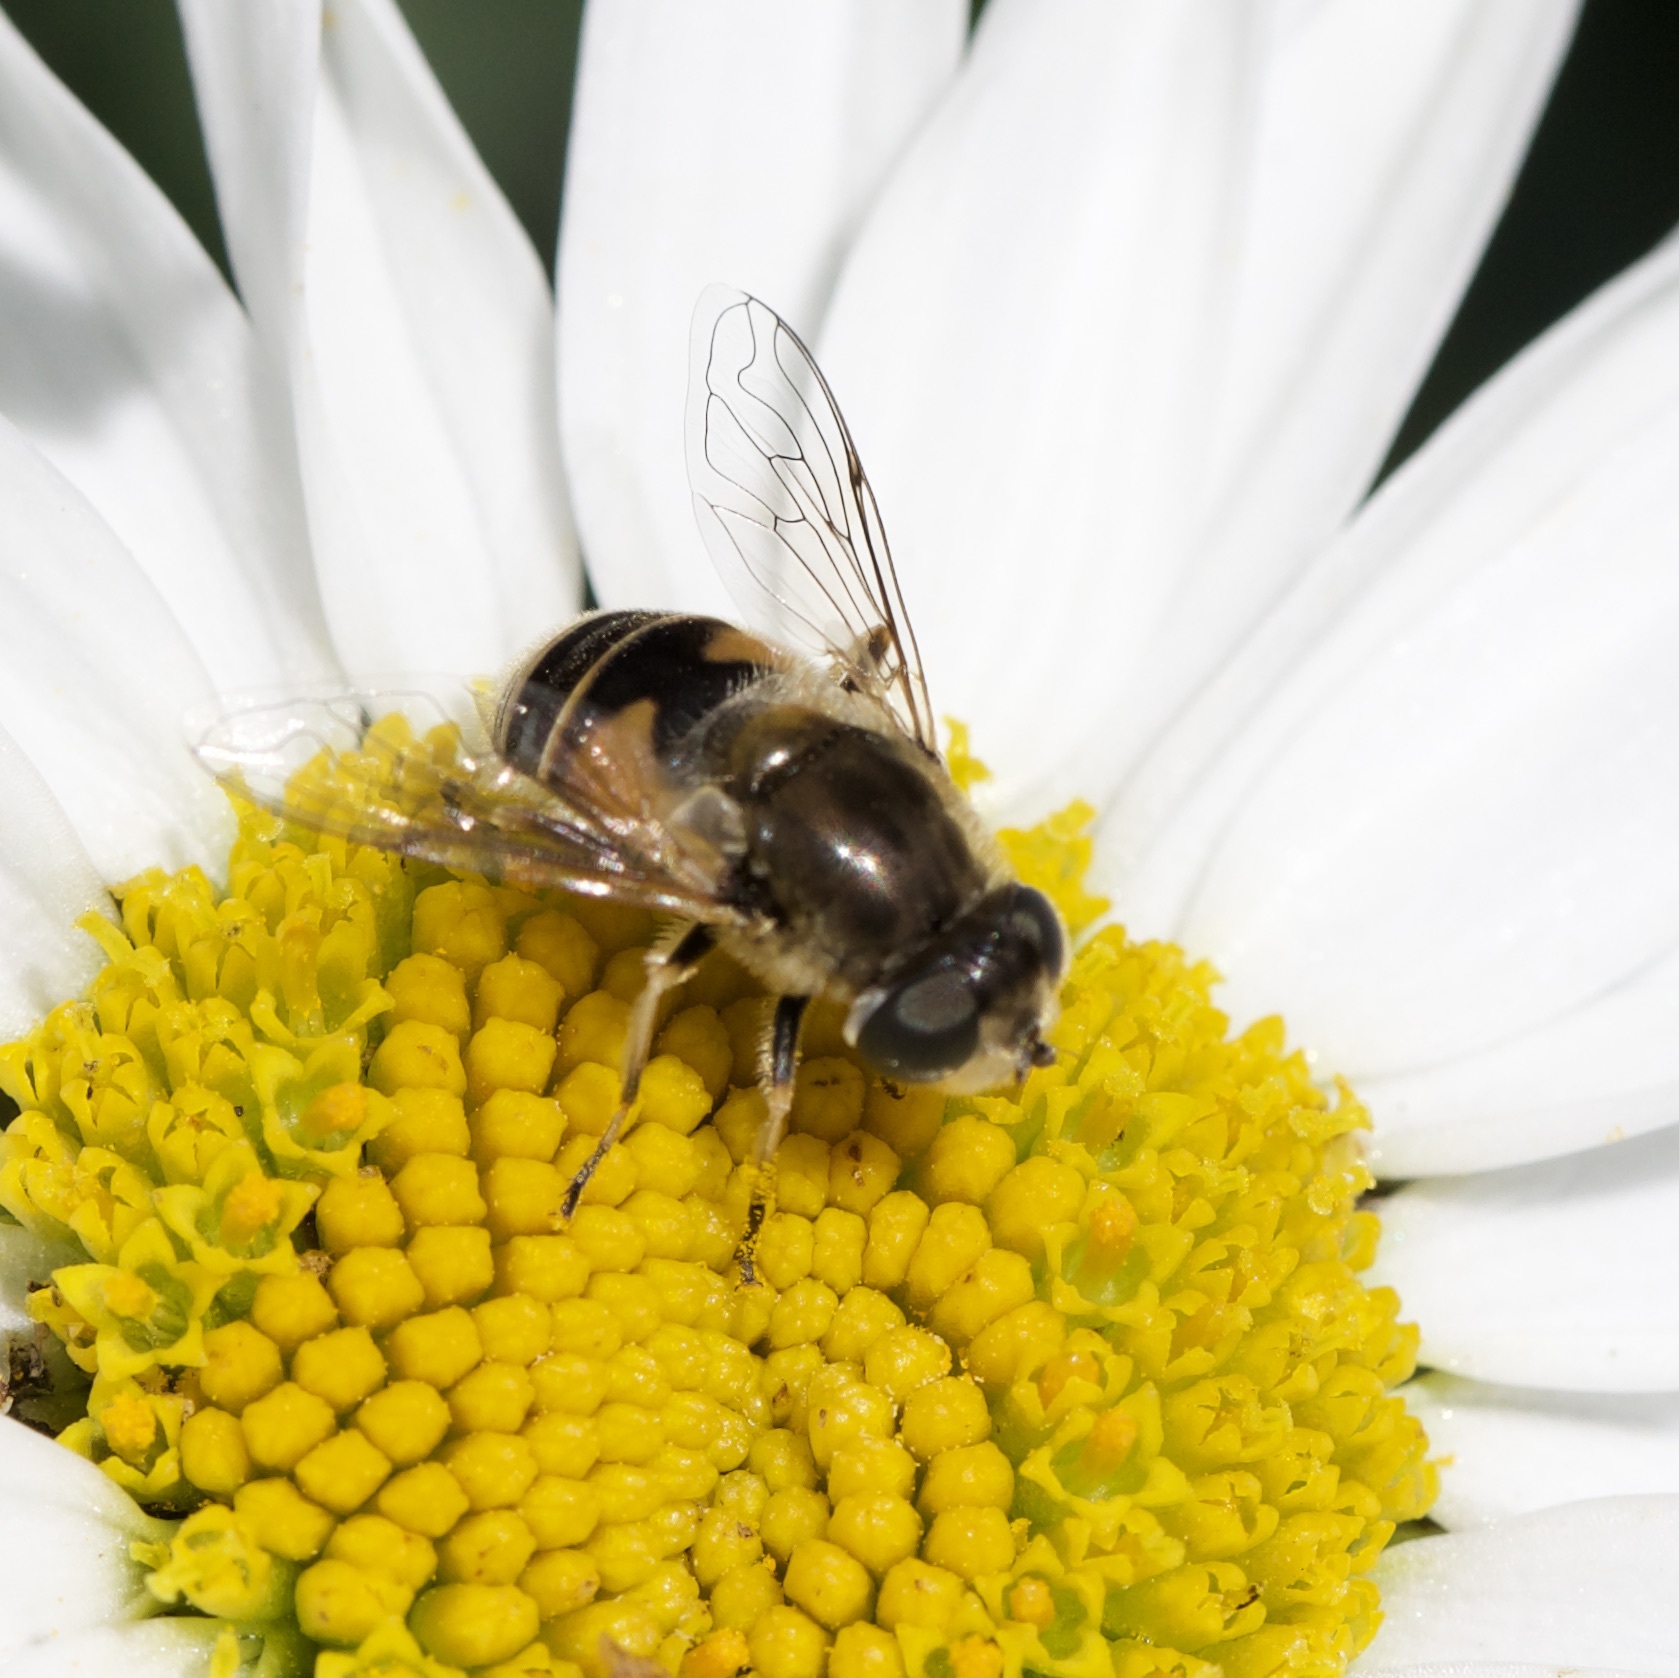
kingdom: Animalia
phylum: Arthropoda
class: Insecta
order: Diptera
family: Syrphidae
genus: Eristalis
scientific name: Eristalis arbustorum
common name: Hover fly
